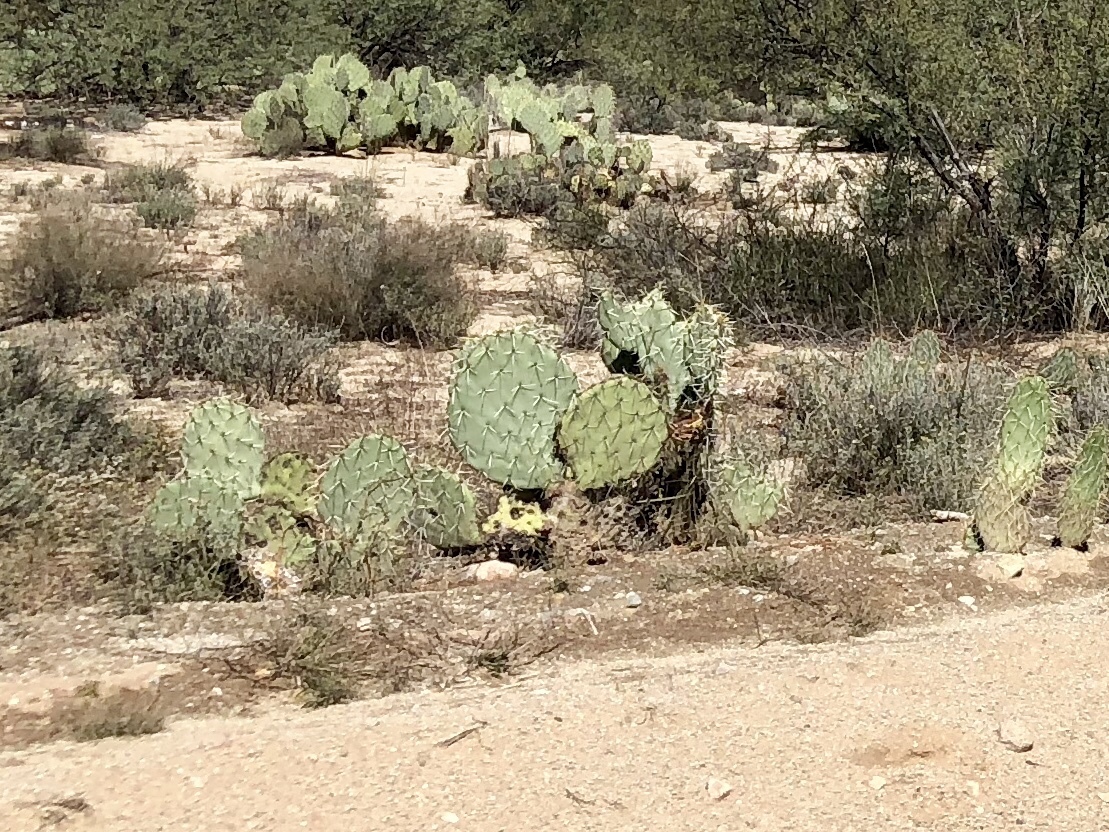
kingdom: Plantae
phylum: Tracheophyta
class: Magnoliopsida
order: Caryophyllales
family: Cactaceae
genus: Opuntia
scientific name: Opuntia engelmannii
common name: Cactus-apple
